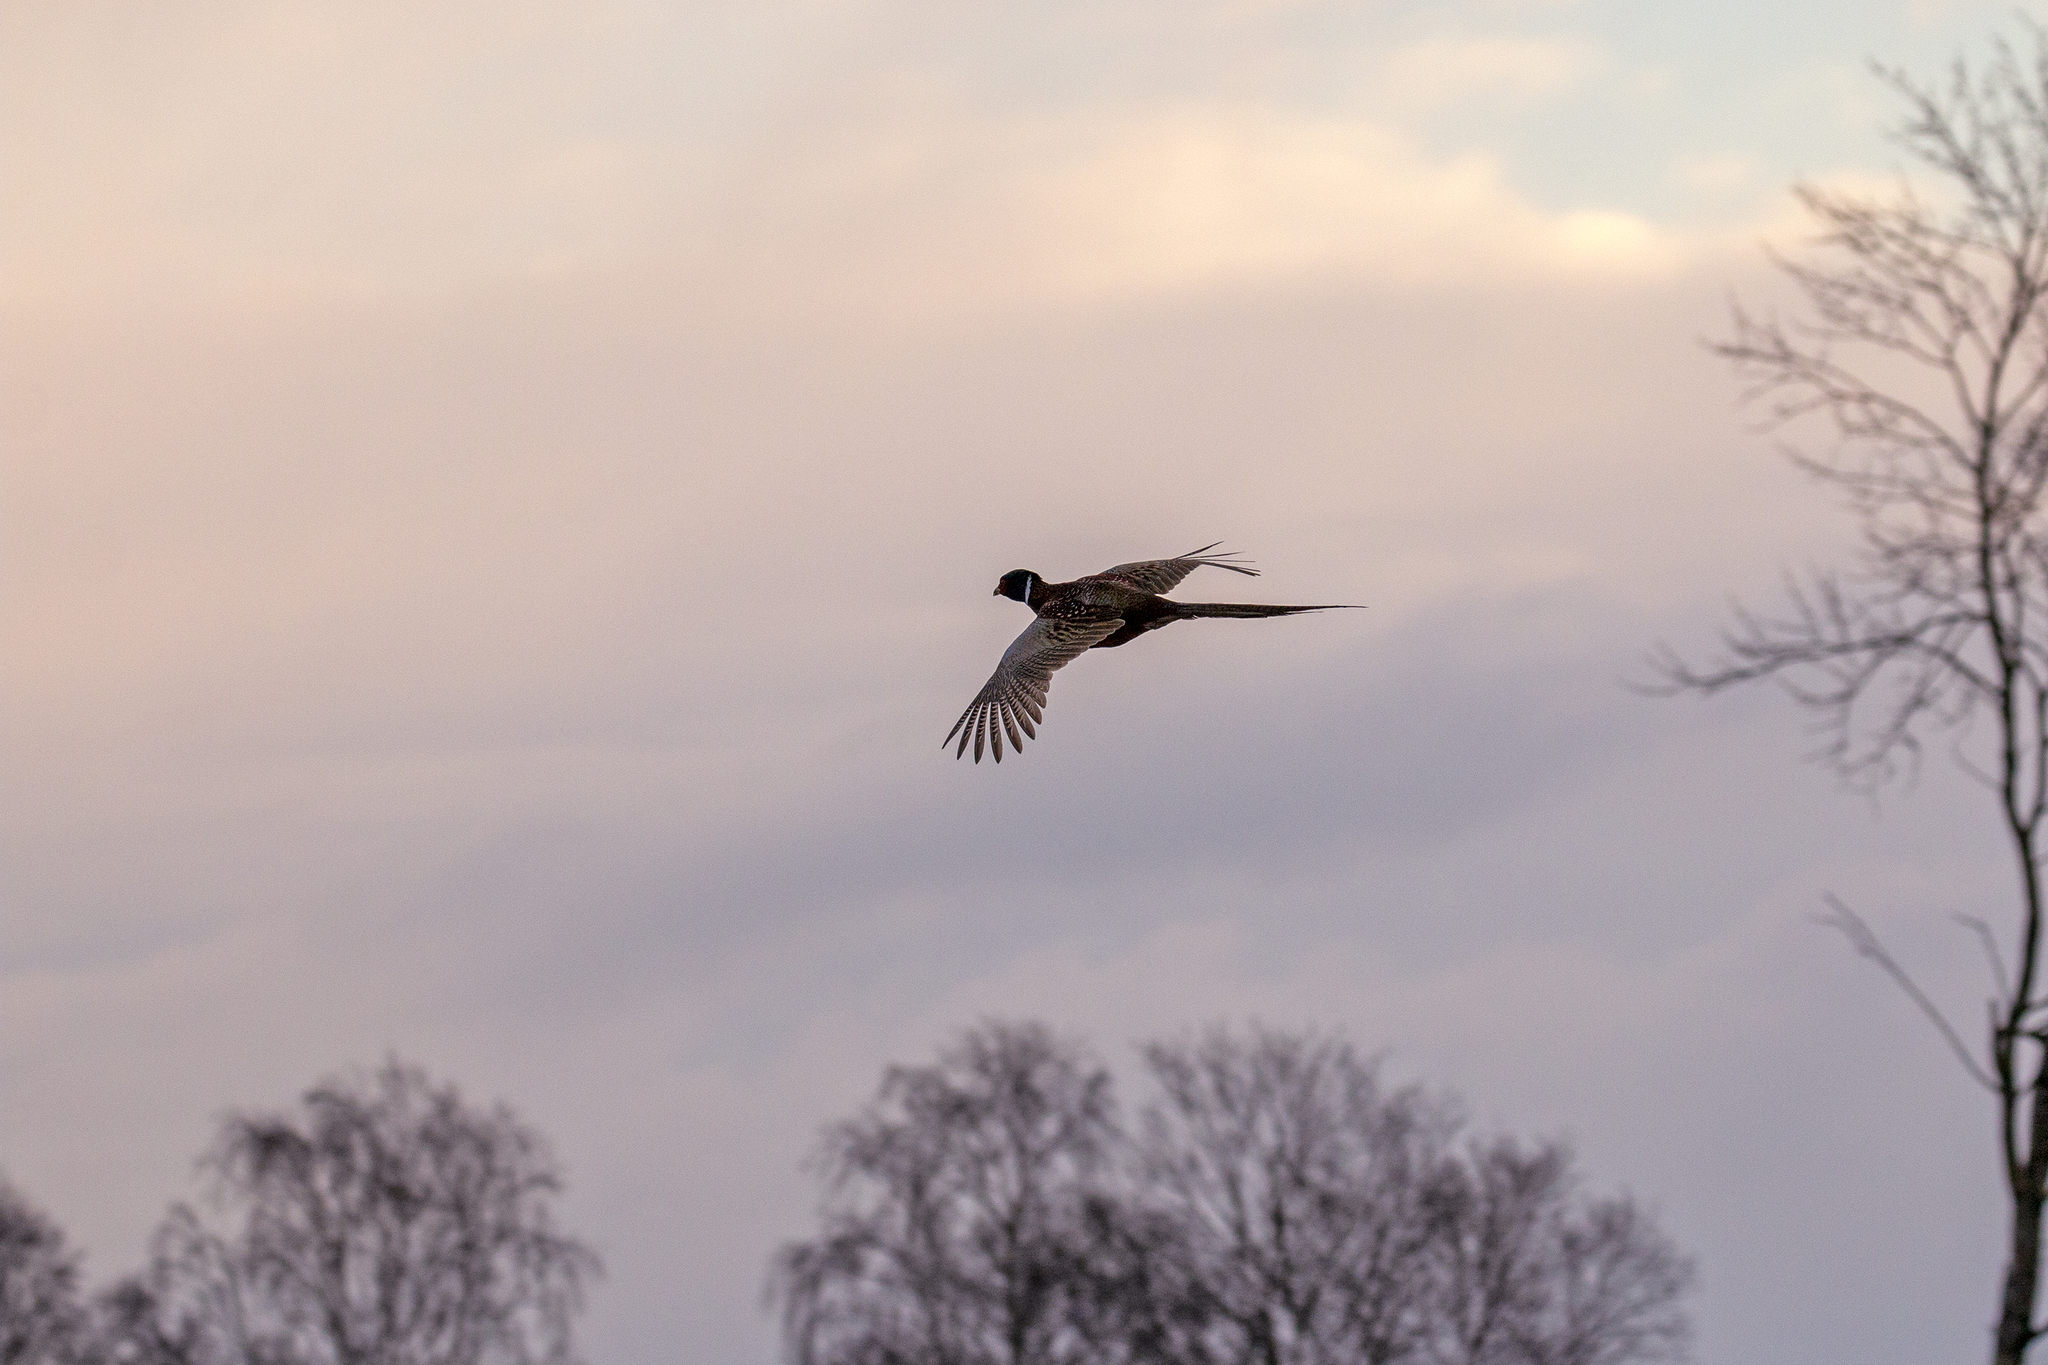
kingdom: Animalia
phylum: Chordata
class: Aves
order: Galliformes
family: Phasianidae
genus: Phasianus
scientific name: Phasianus colchicus
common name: Common pheasant
